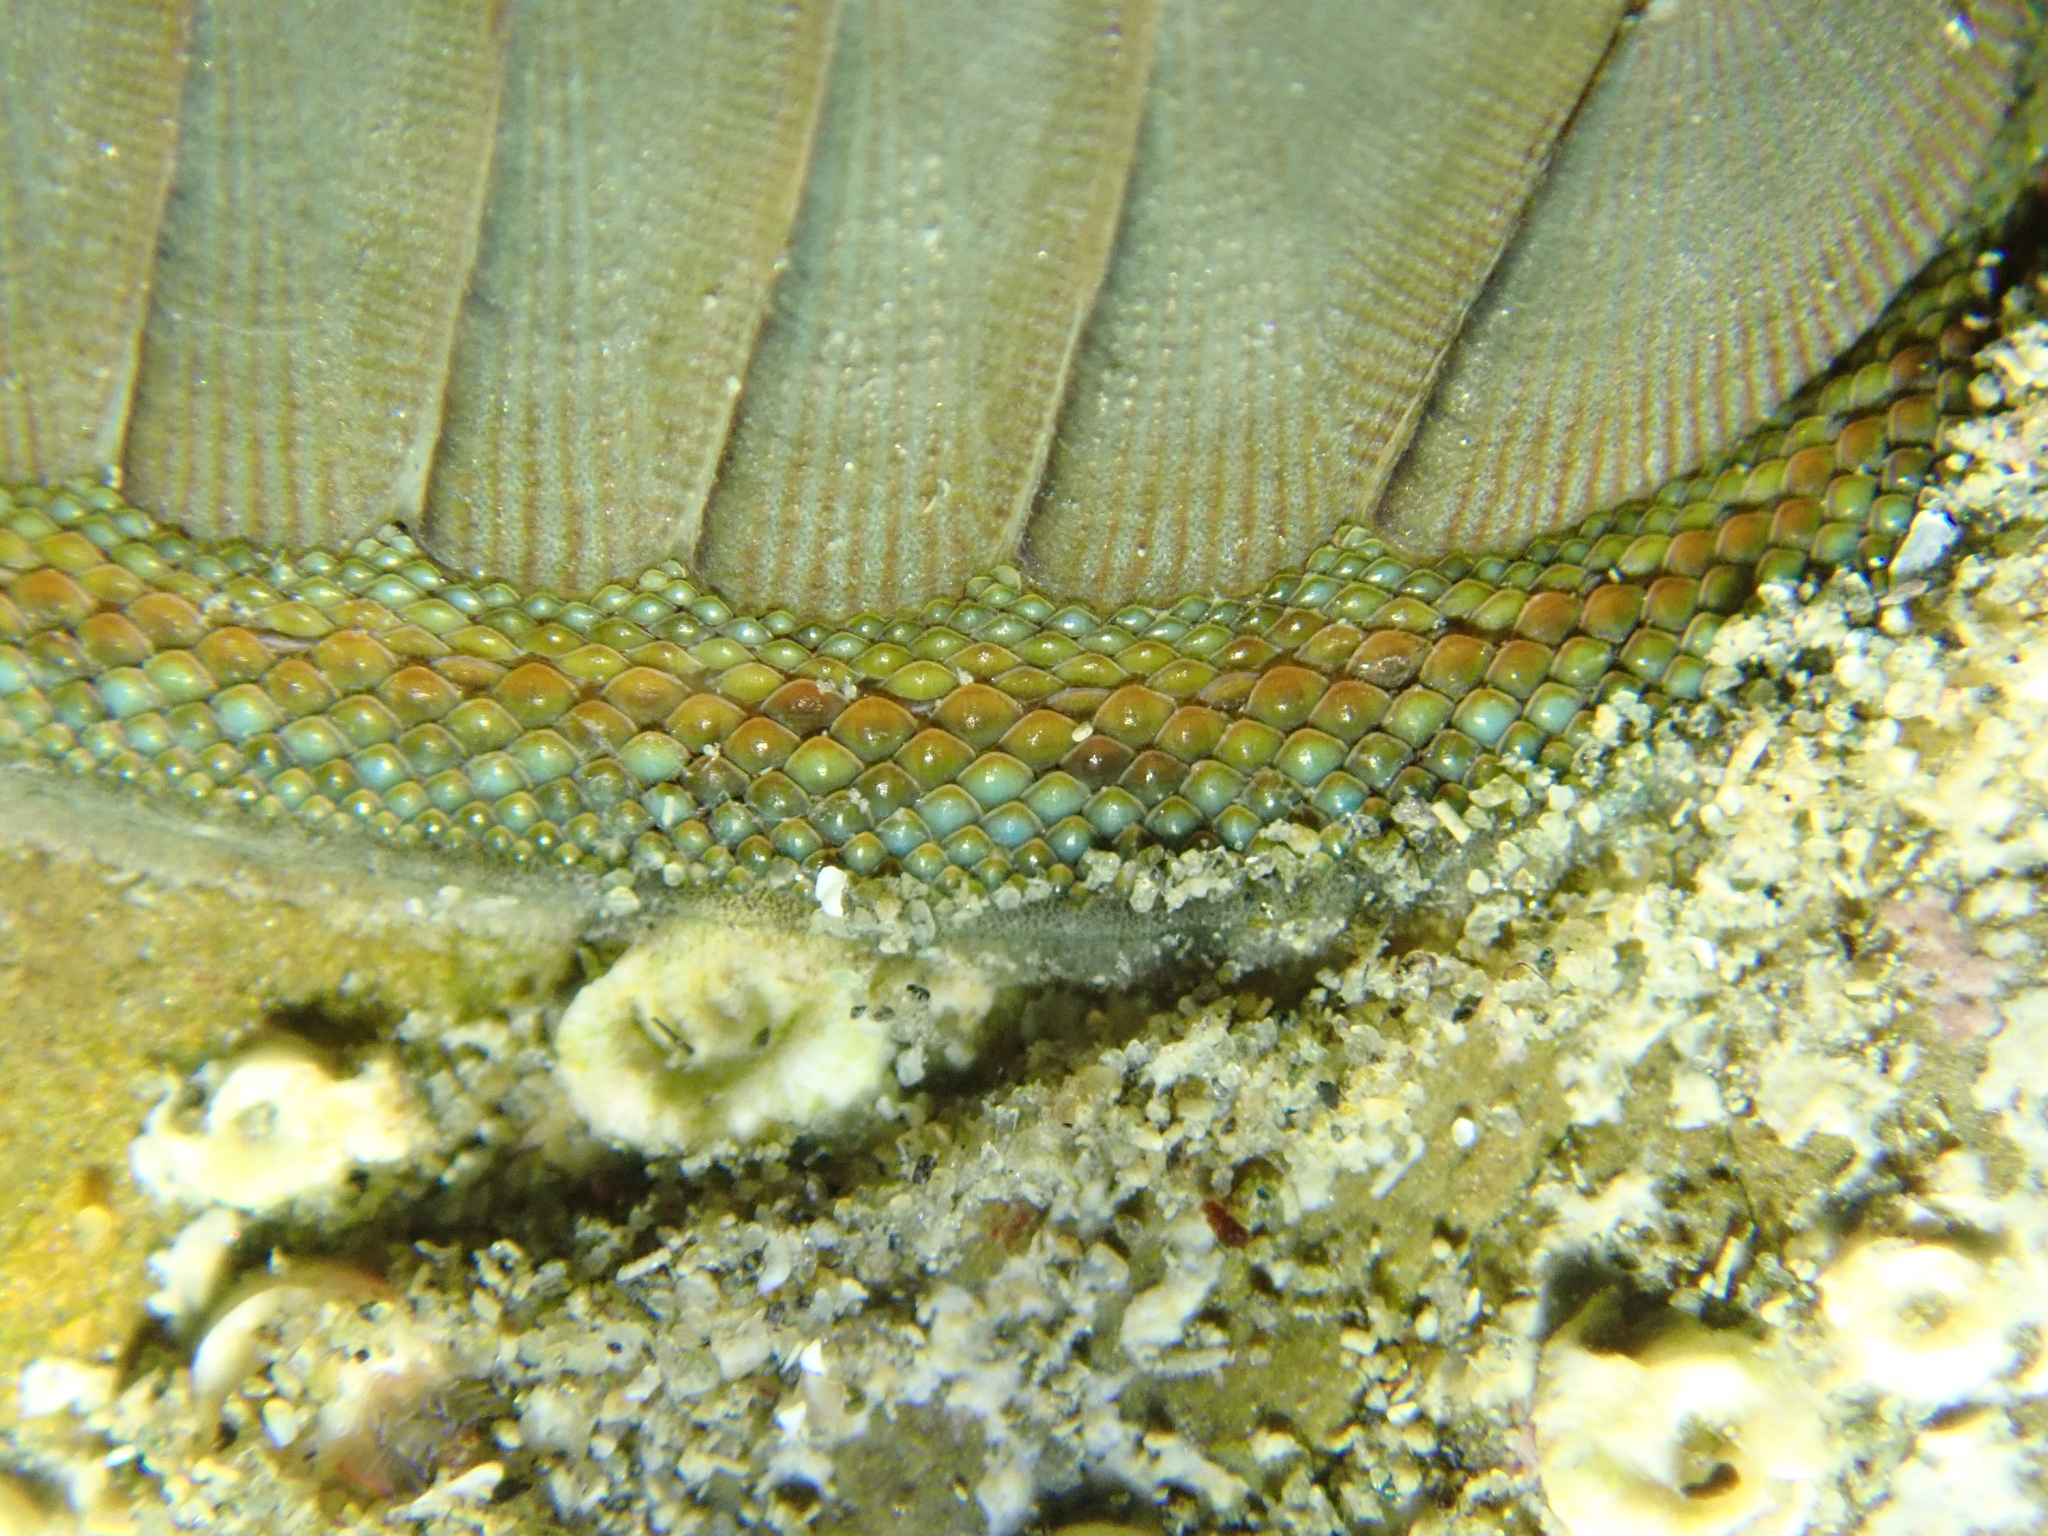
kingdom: Animalia
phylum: Mollusca
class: Polyplacophora
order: Chitonida
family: Chitonidae
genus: Chiton
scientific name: Chiton glaucus
